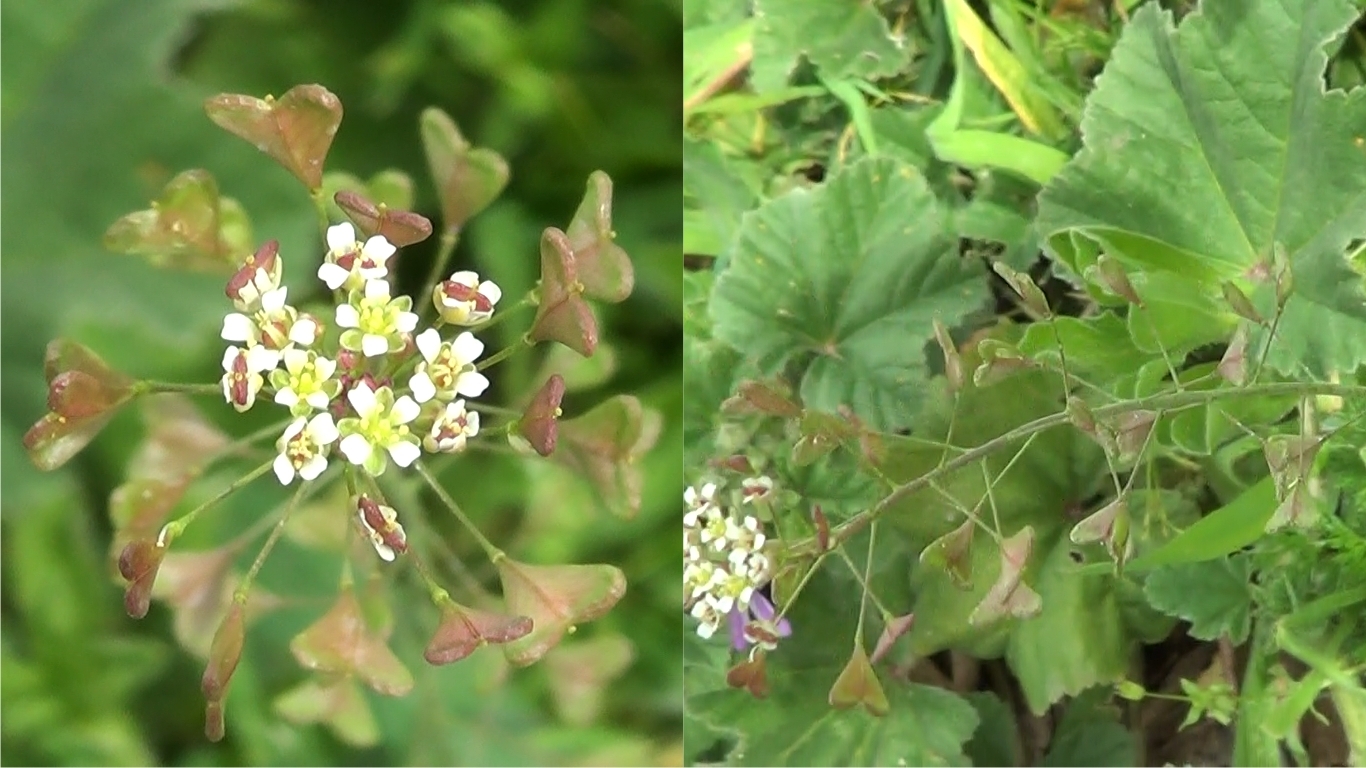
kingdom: Plantae
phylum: Tracheophyta
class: Magnoliopsida
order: Brassicales
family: Brassicaceae
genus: Capsella
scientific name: Capsella bursa-pastoris
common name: Shepherd's purse
